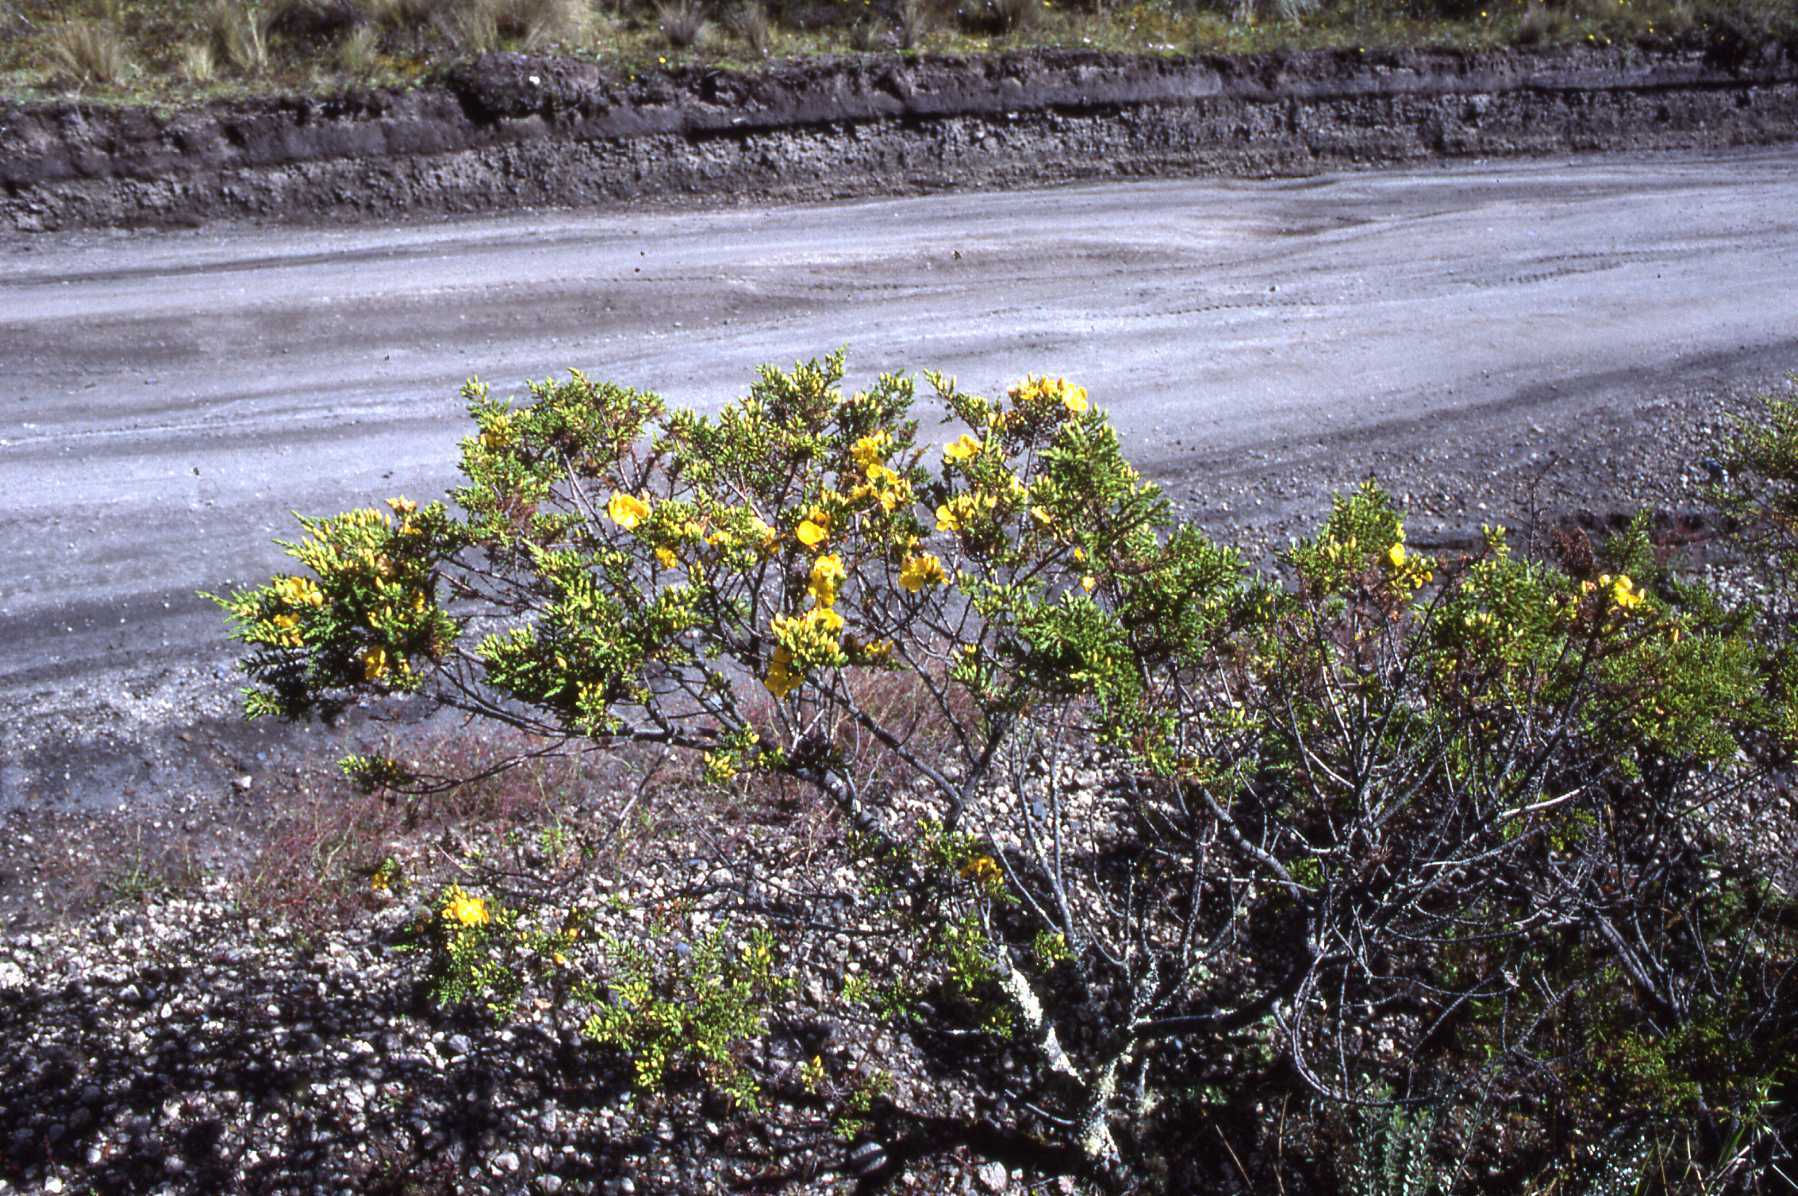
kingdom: Plantae
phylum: Tracheophyta
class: Magnoliopsida
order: Malpighiales
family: Hypericaceae
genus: Hypericum
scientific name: Hypericum laricifolium
